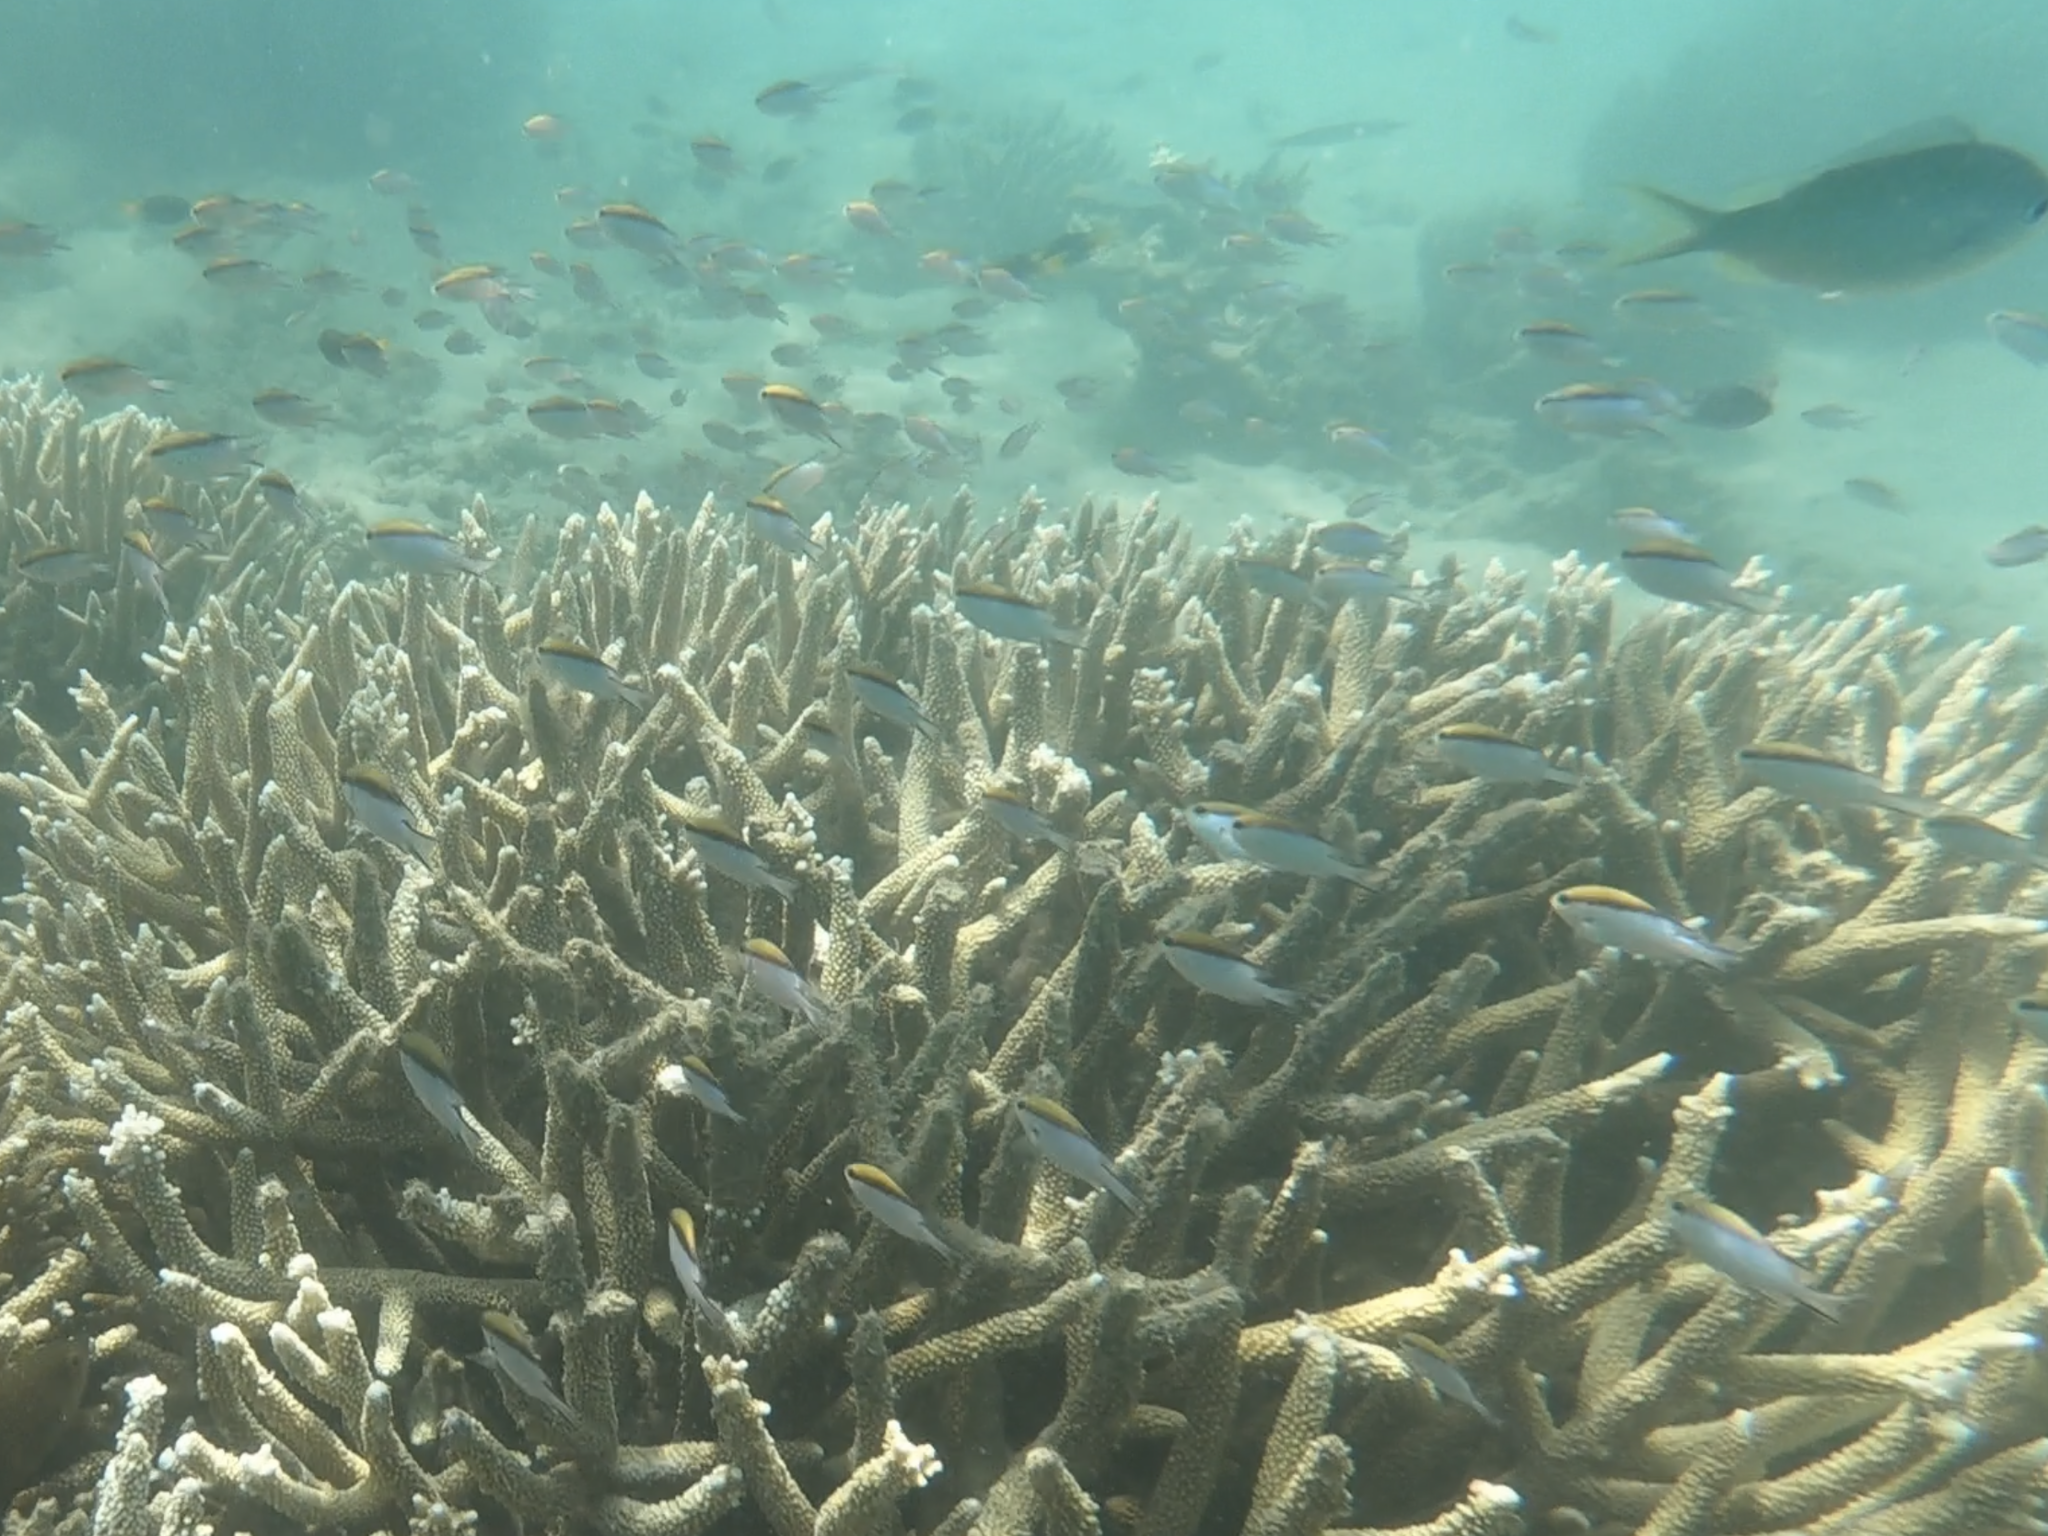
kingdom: Animalia
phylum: Chordata
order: Perciformes
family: Pomacentridae
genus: Chromis
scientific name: Chromis nitida
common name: Barrier reef chromis
